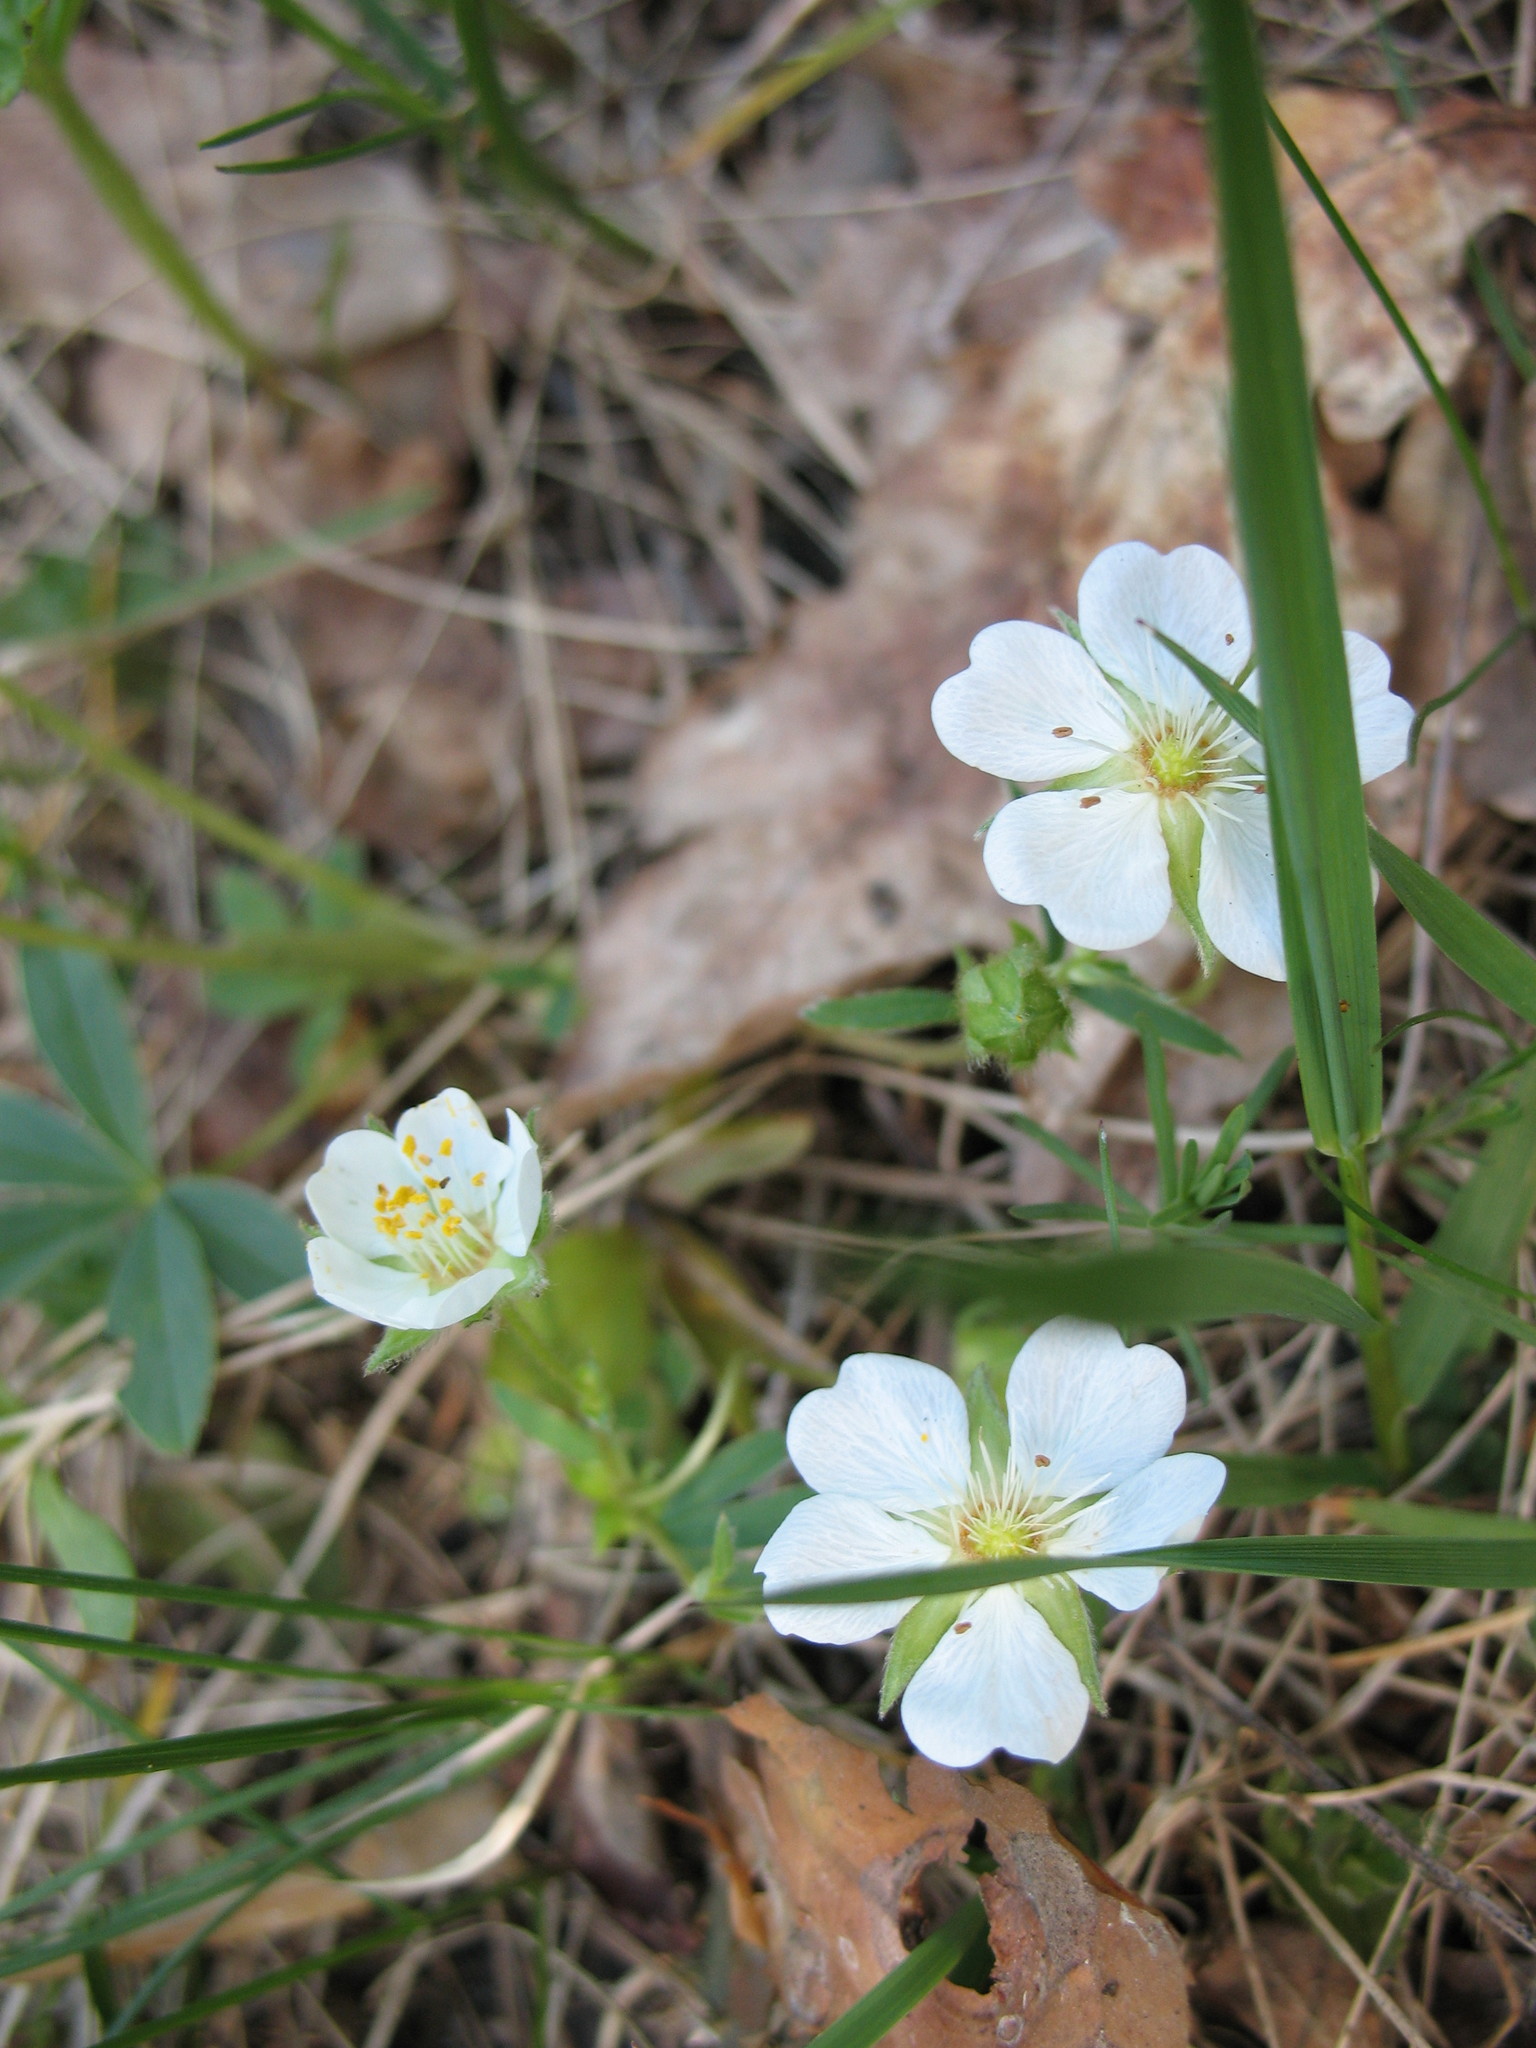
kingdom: Plantae
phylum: Tracheophyta
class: Magnoliopsida
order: Rosales
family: Rosaceae
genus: Potentilla
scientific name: Potentilla alba
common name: White cinquefoil
